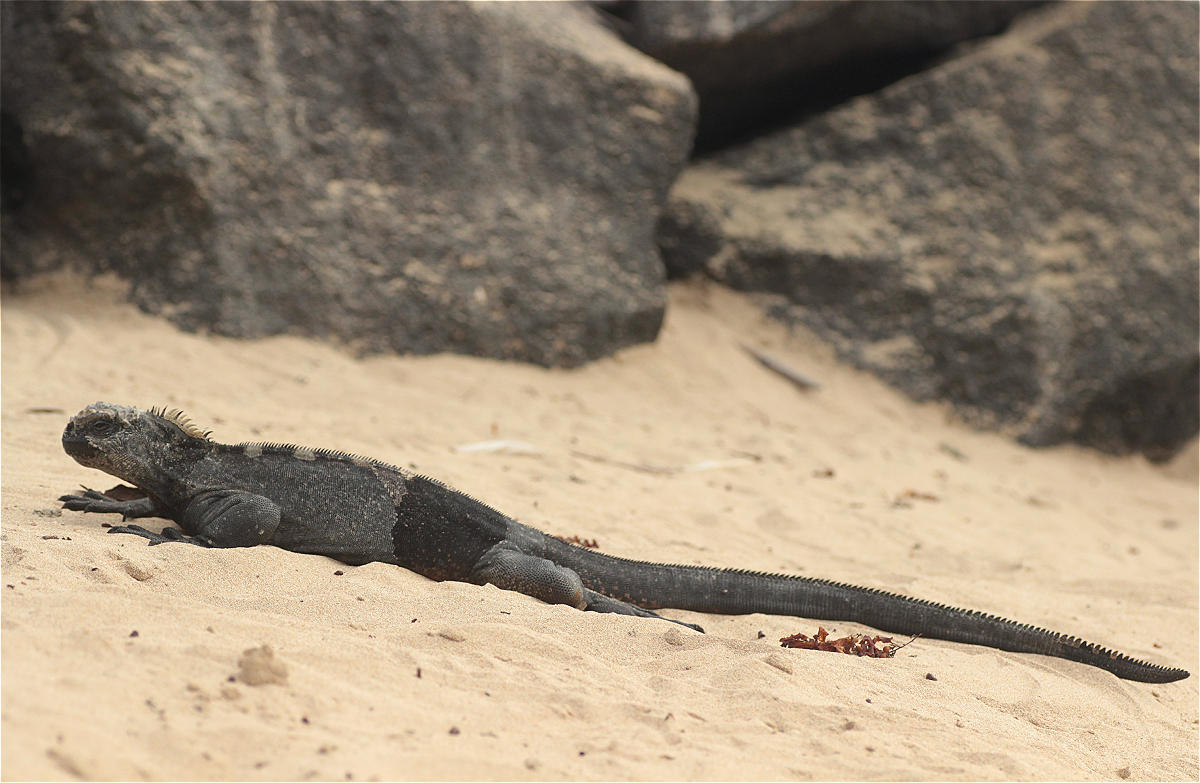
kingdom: Animalia
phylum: Chordata
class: Squamata
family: Iguanidae
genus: Amblyrhynchus
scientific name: Amblyrhynchus cristatus
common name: Marine iguana
